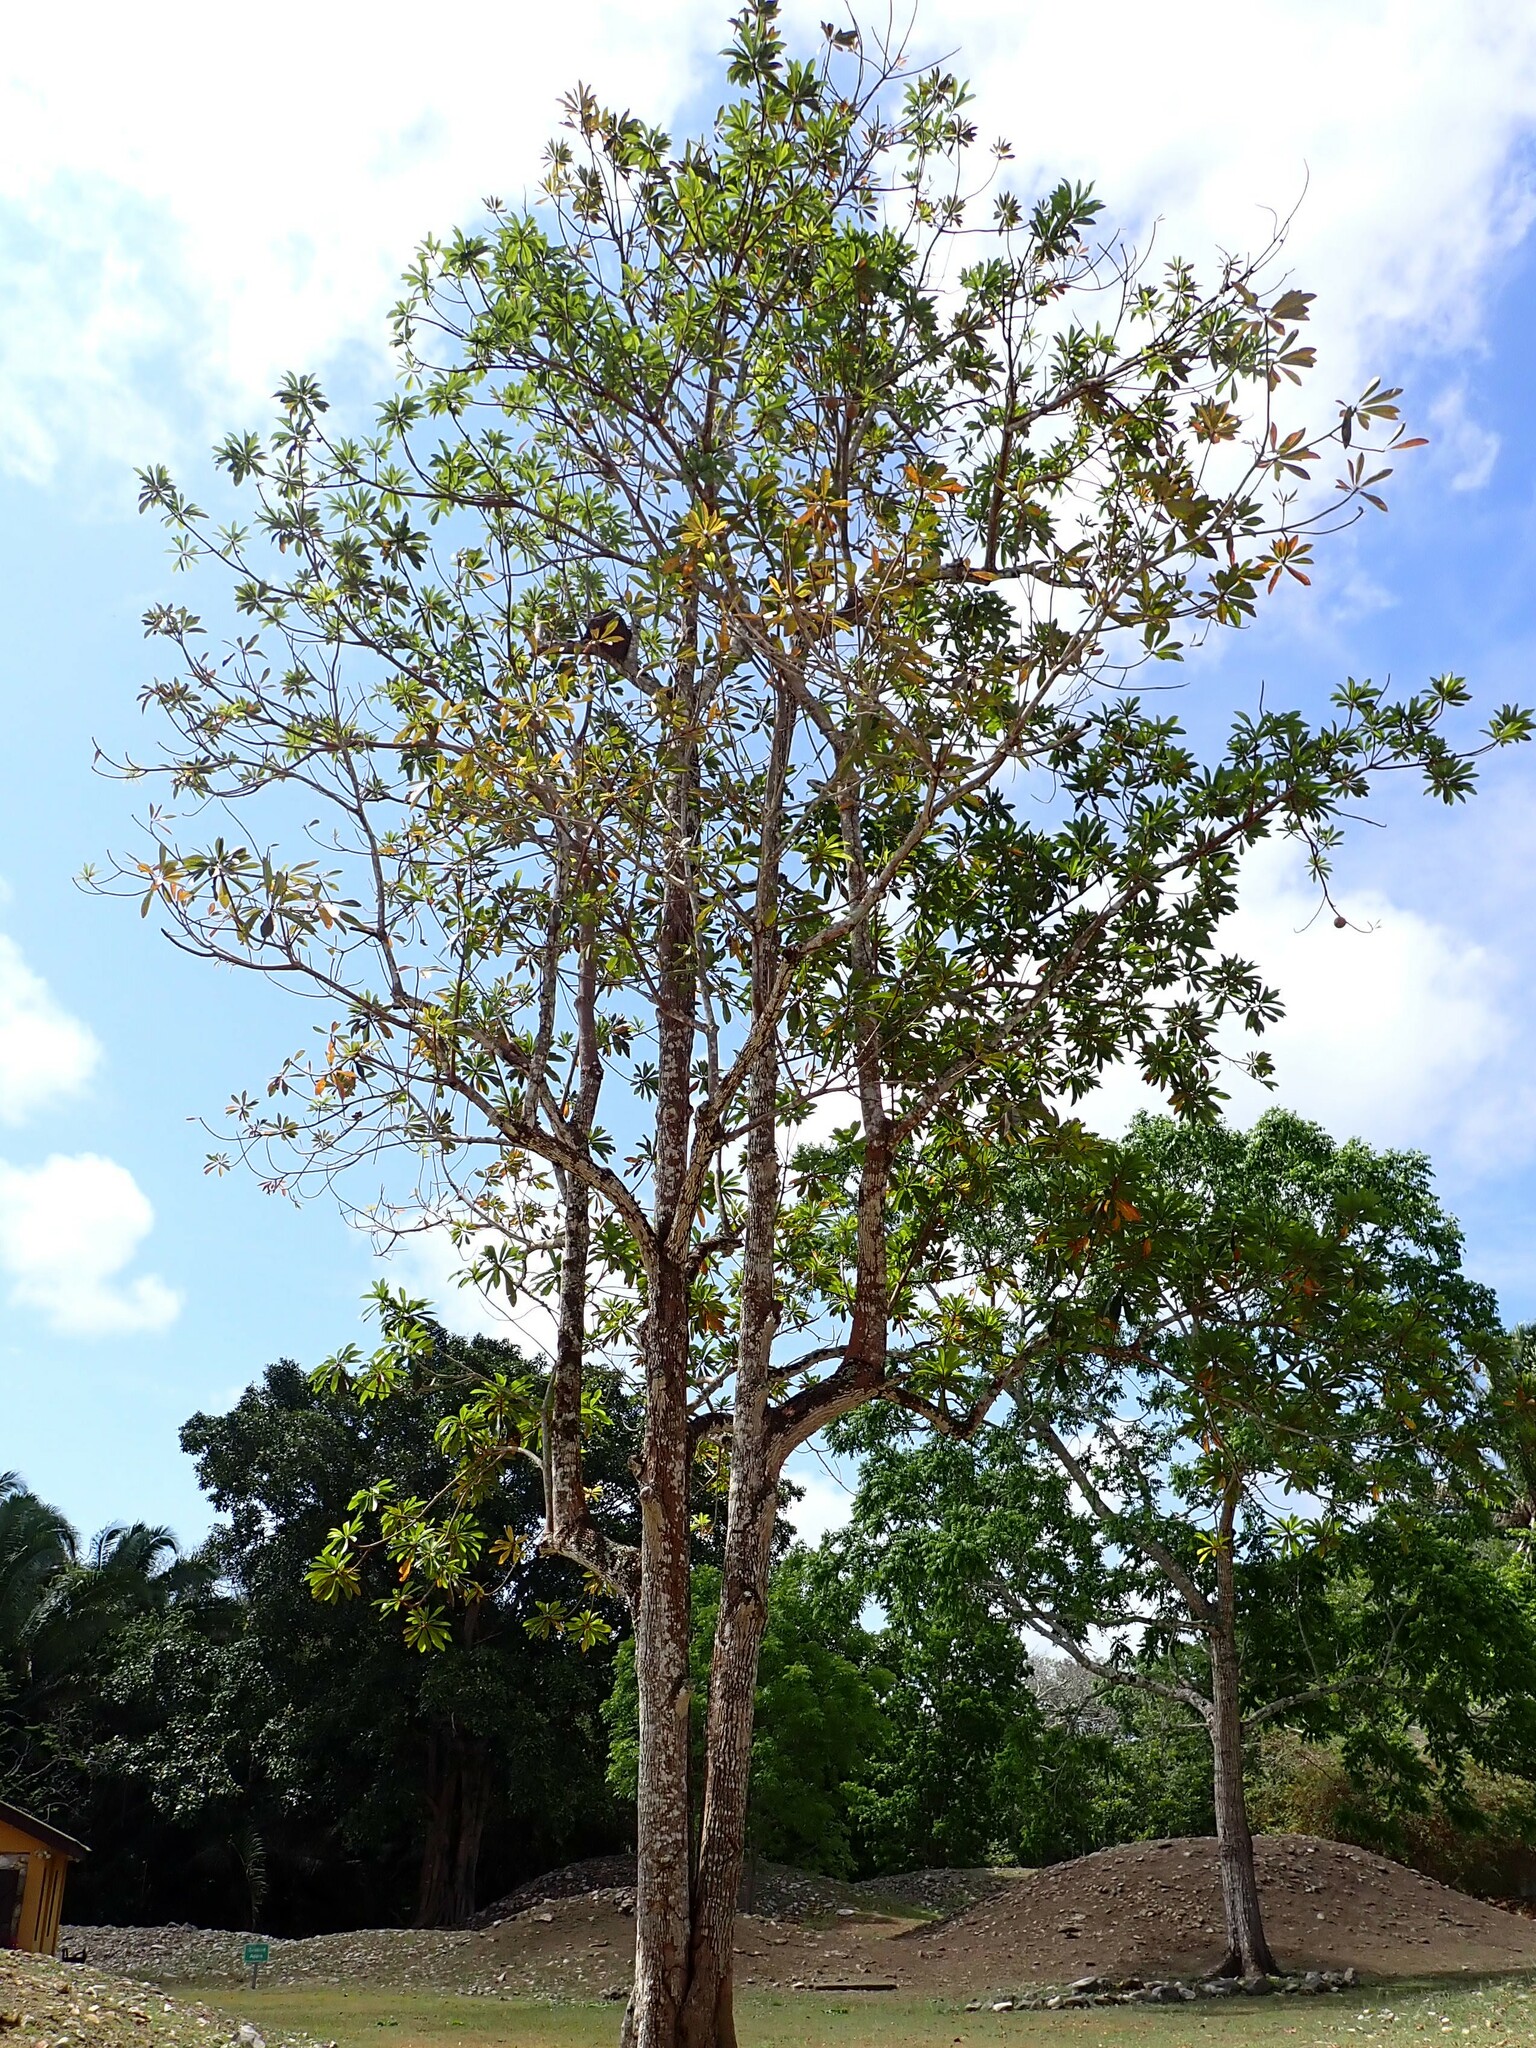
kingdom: Plantae
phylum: Tracheophyta
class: Magnoliopsida
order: Ericales
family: Sapotaceae
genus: Pouteria
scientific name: Pouteria sapota
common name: Mamey
